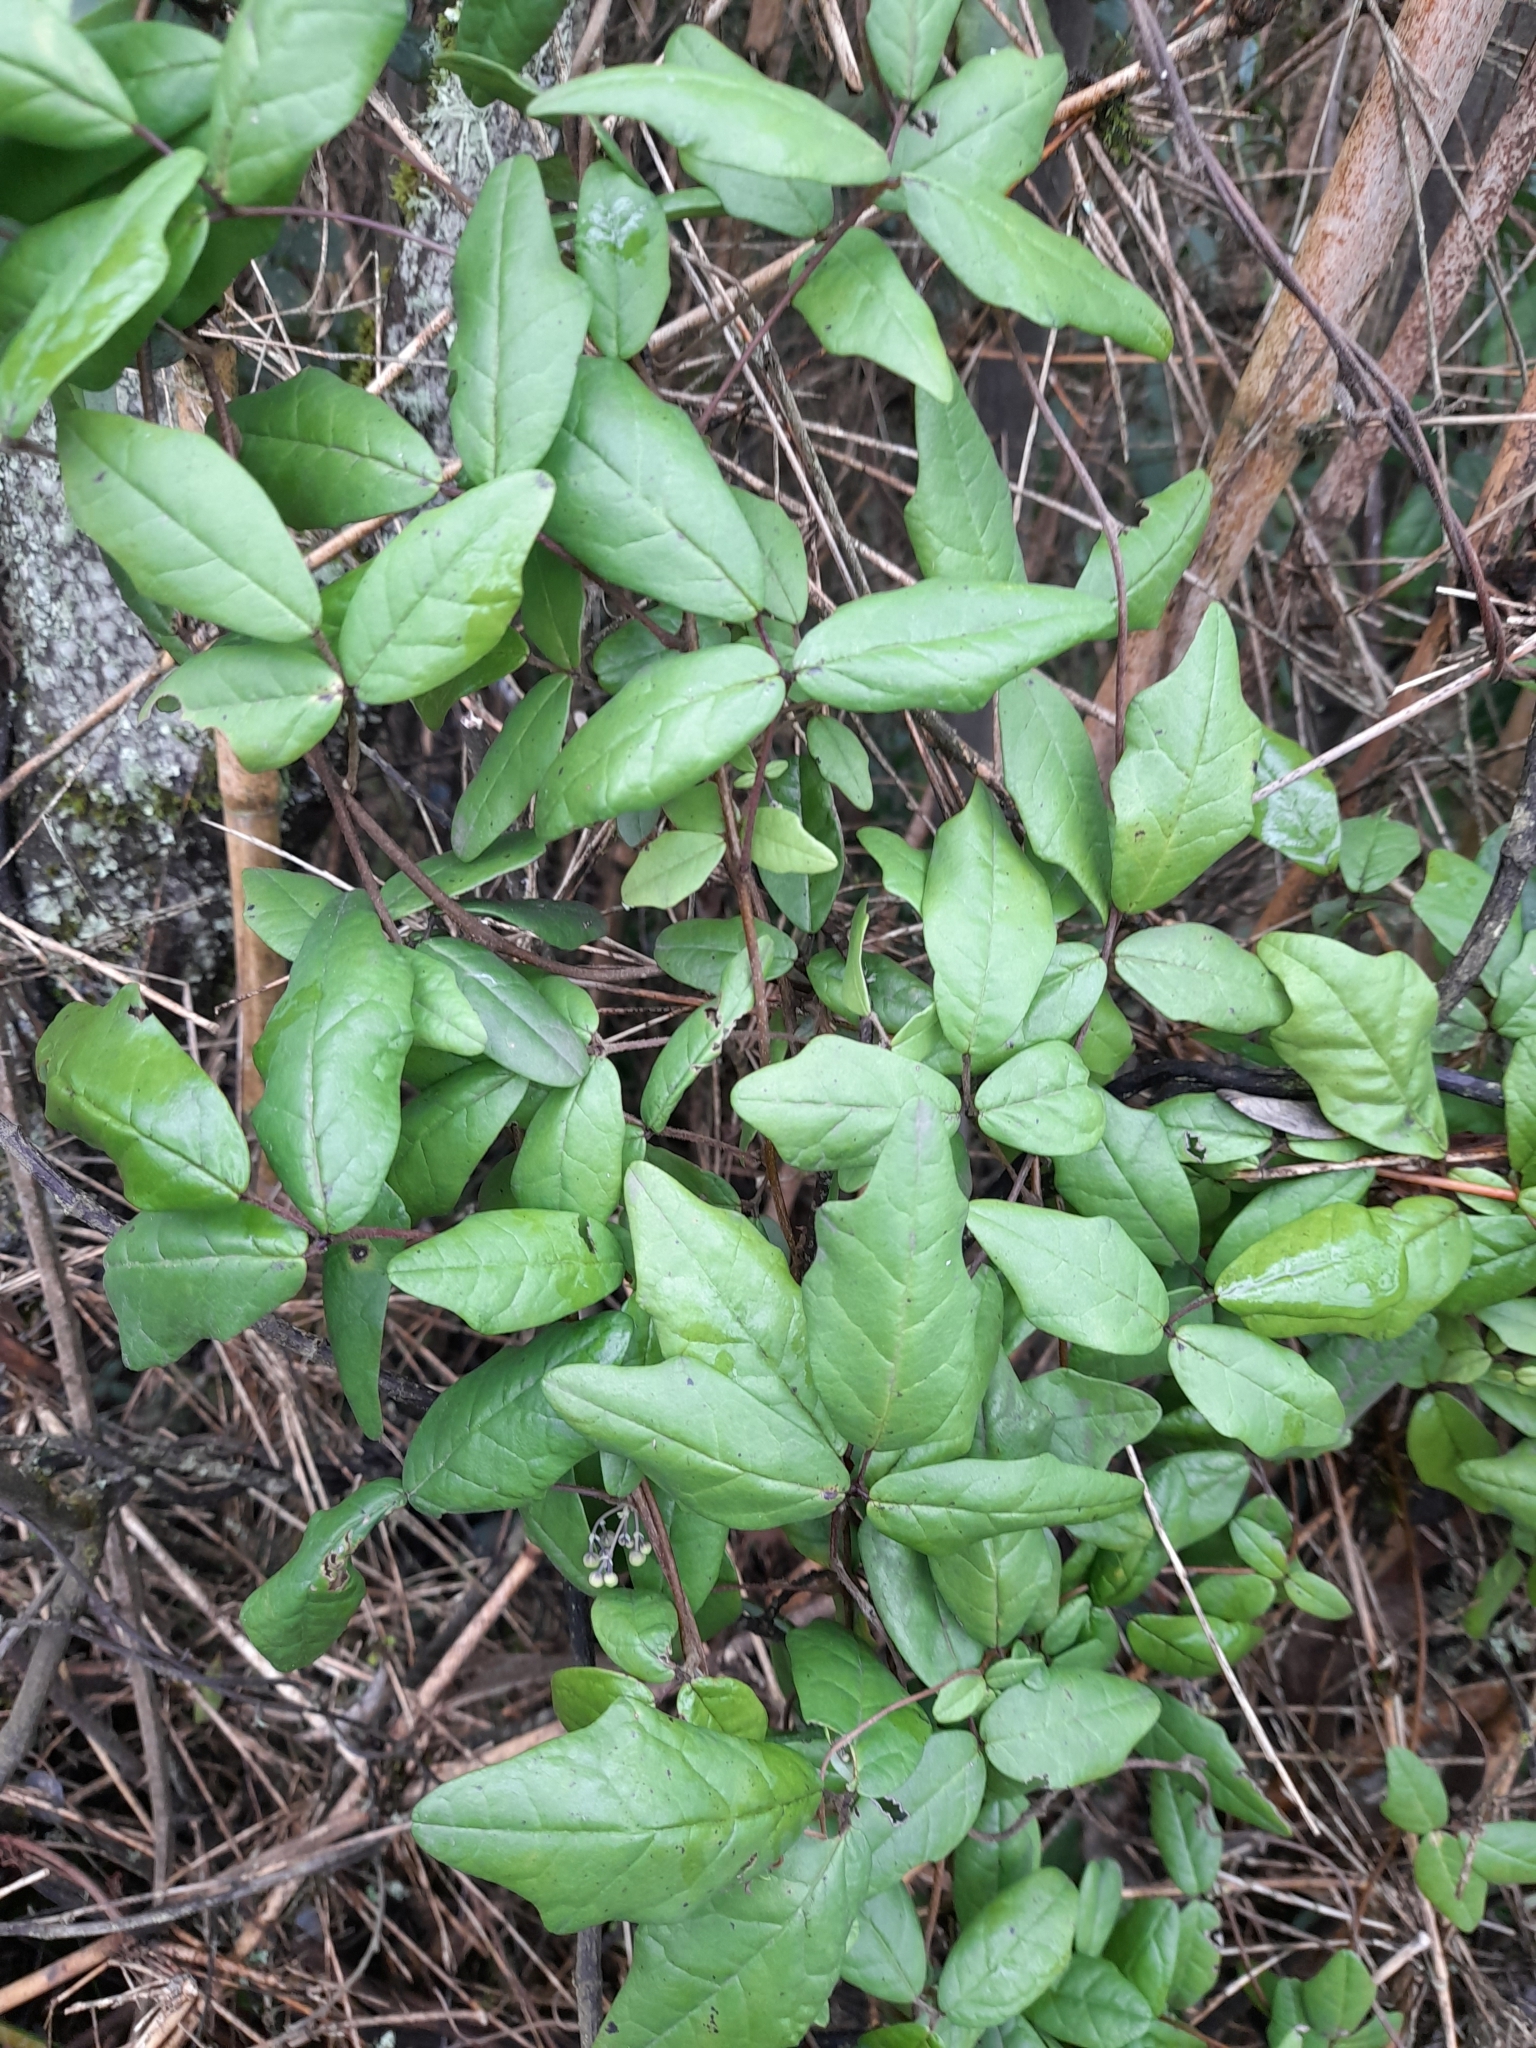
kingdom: Plantae
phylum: Tracheophyta
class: Magnoliopsida
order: Ranunculales
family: Lardizabalaceae
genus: Boquila
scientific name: Boquila trifoliolata
